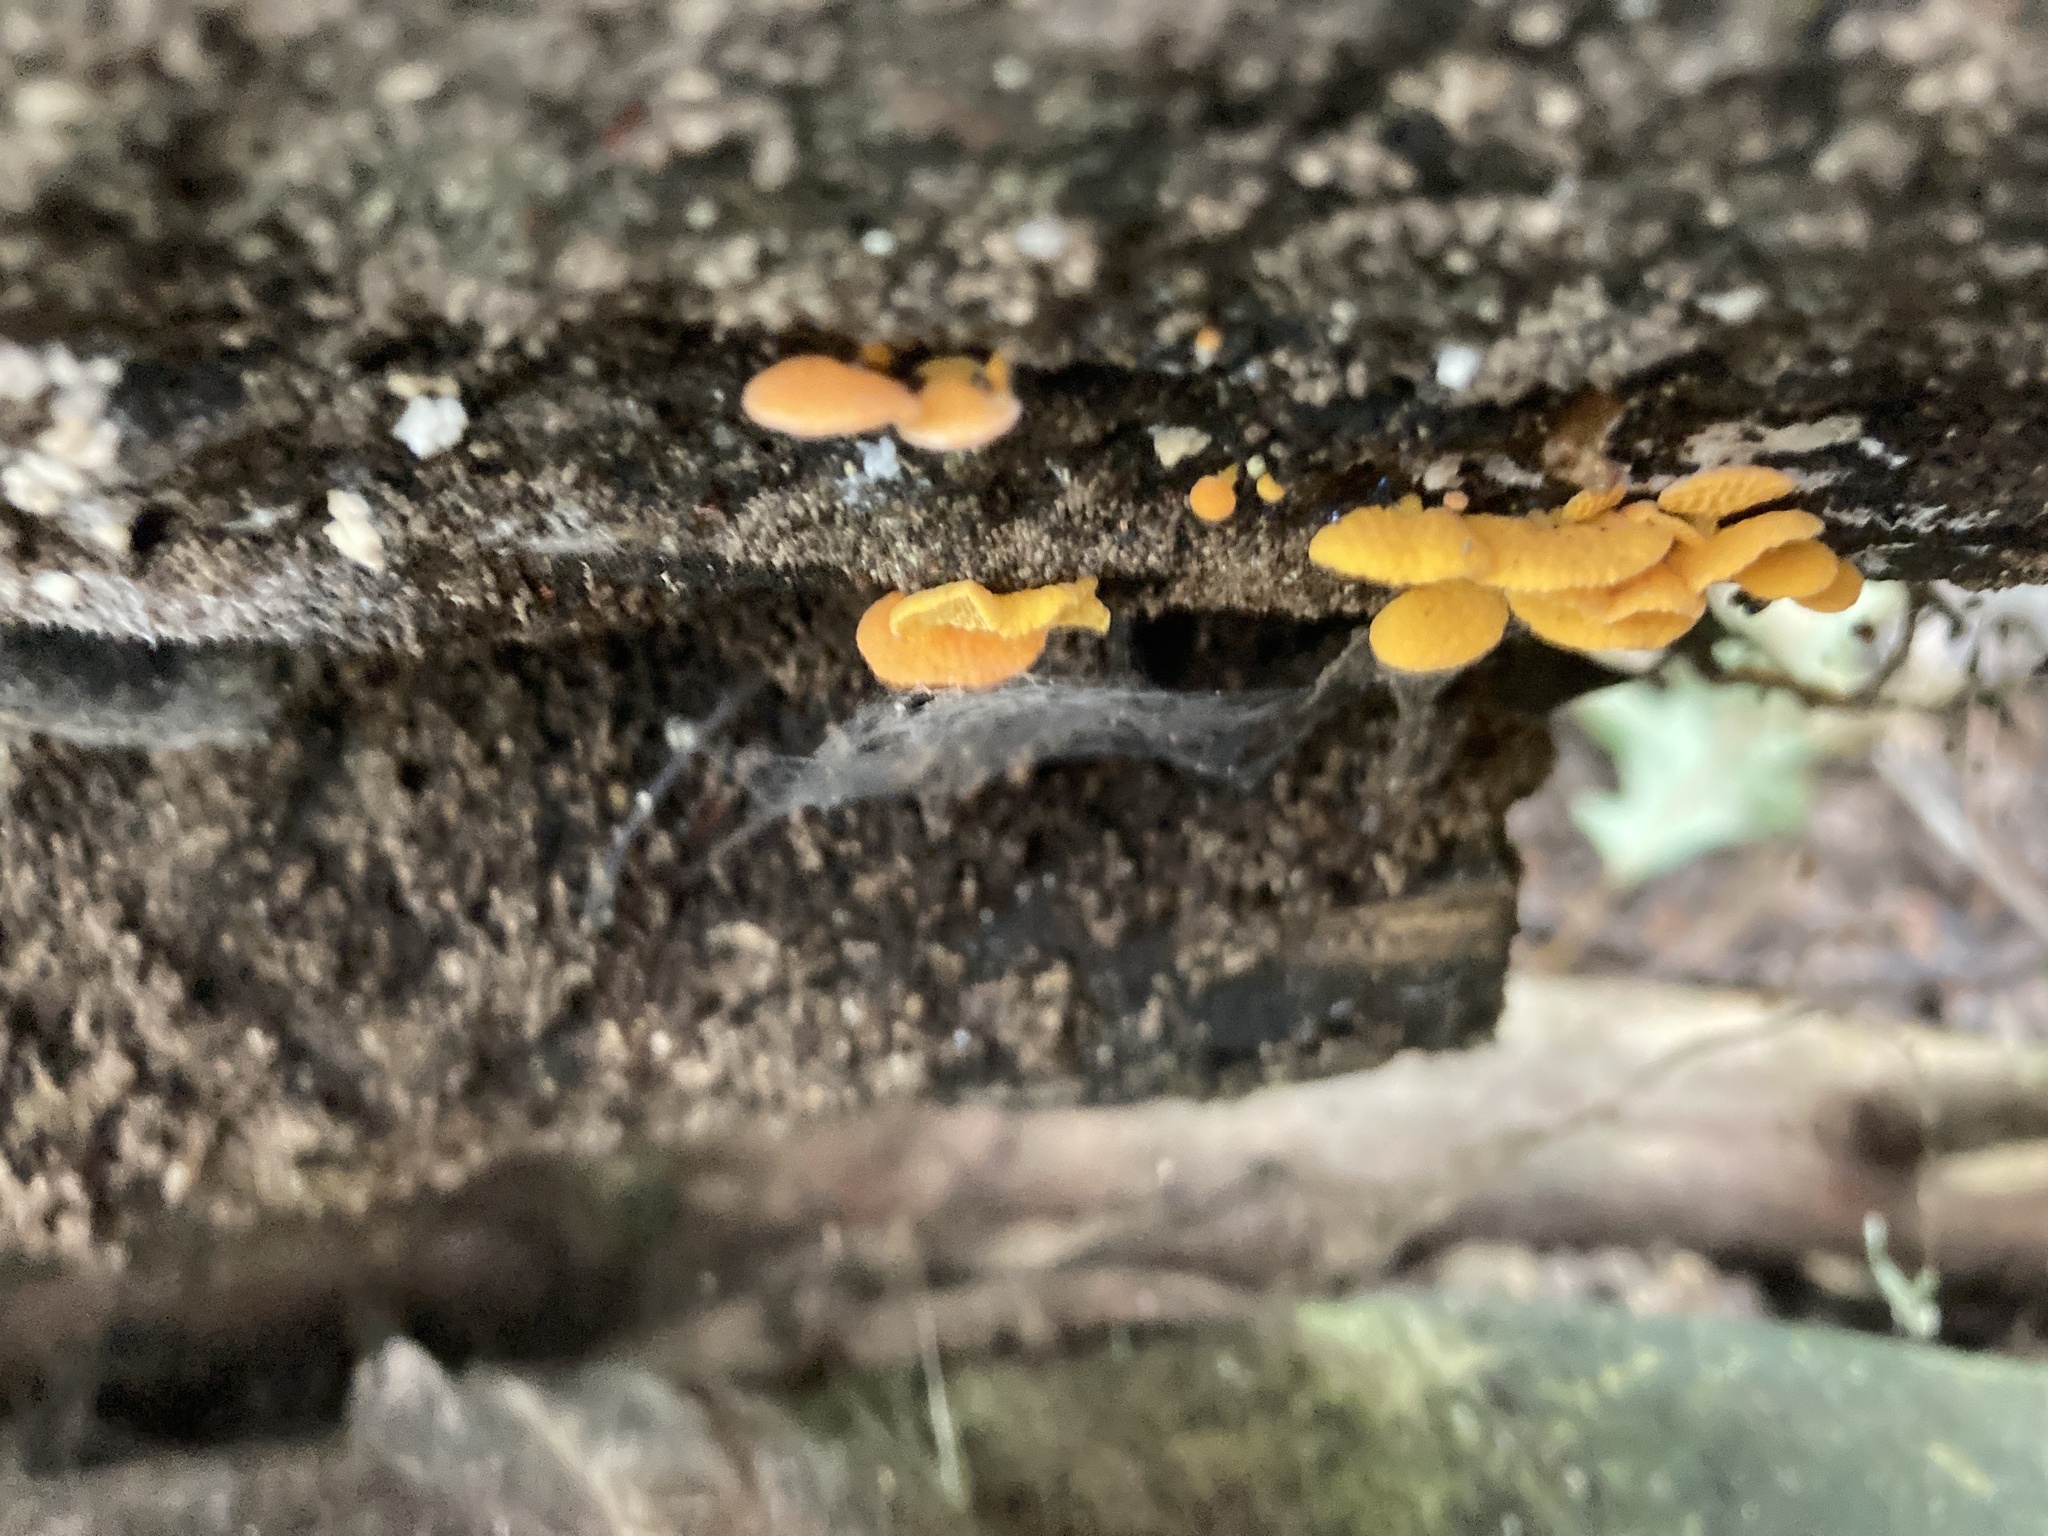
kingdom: Fungi
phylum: Basidiomycota
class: Agaricomycetes
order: Agaricales
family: Mycenaceae
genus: Favolaschia
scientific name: Favolaschia claudopus
